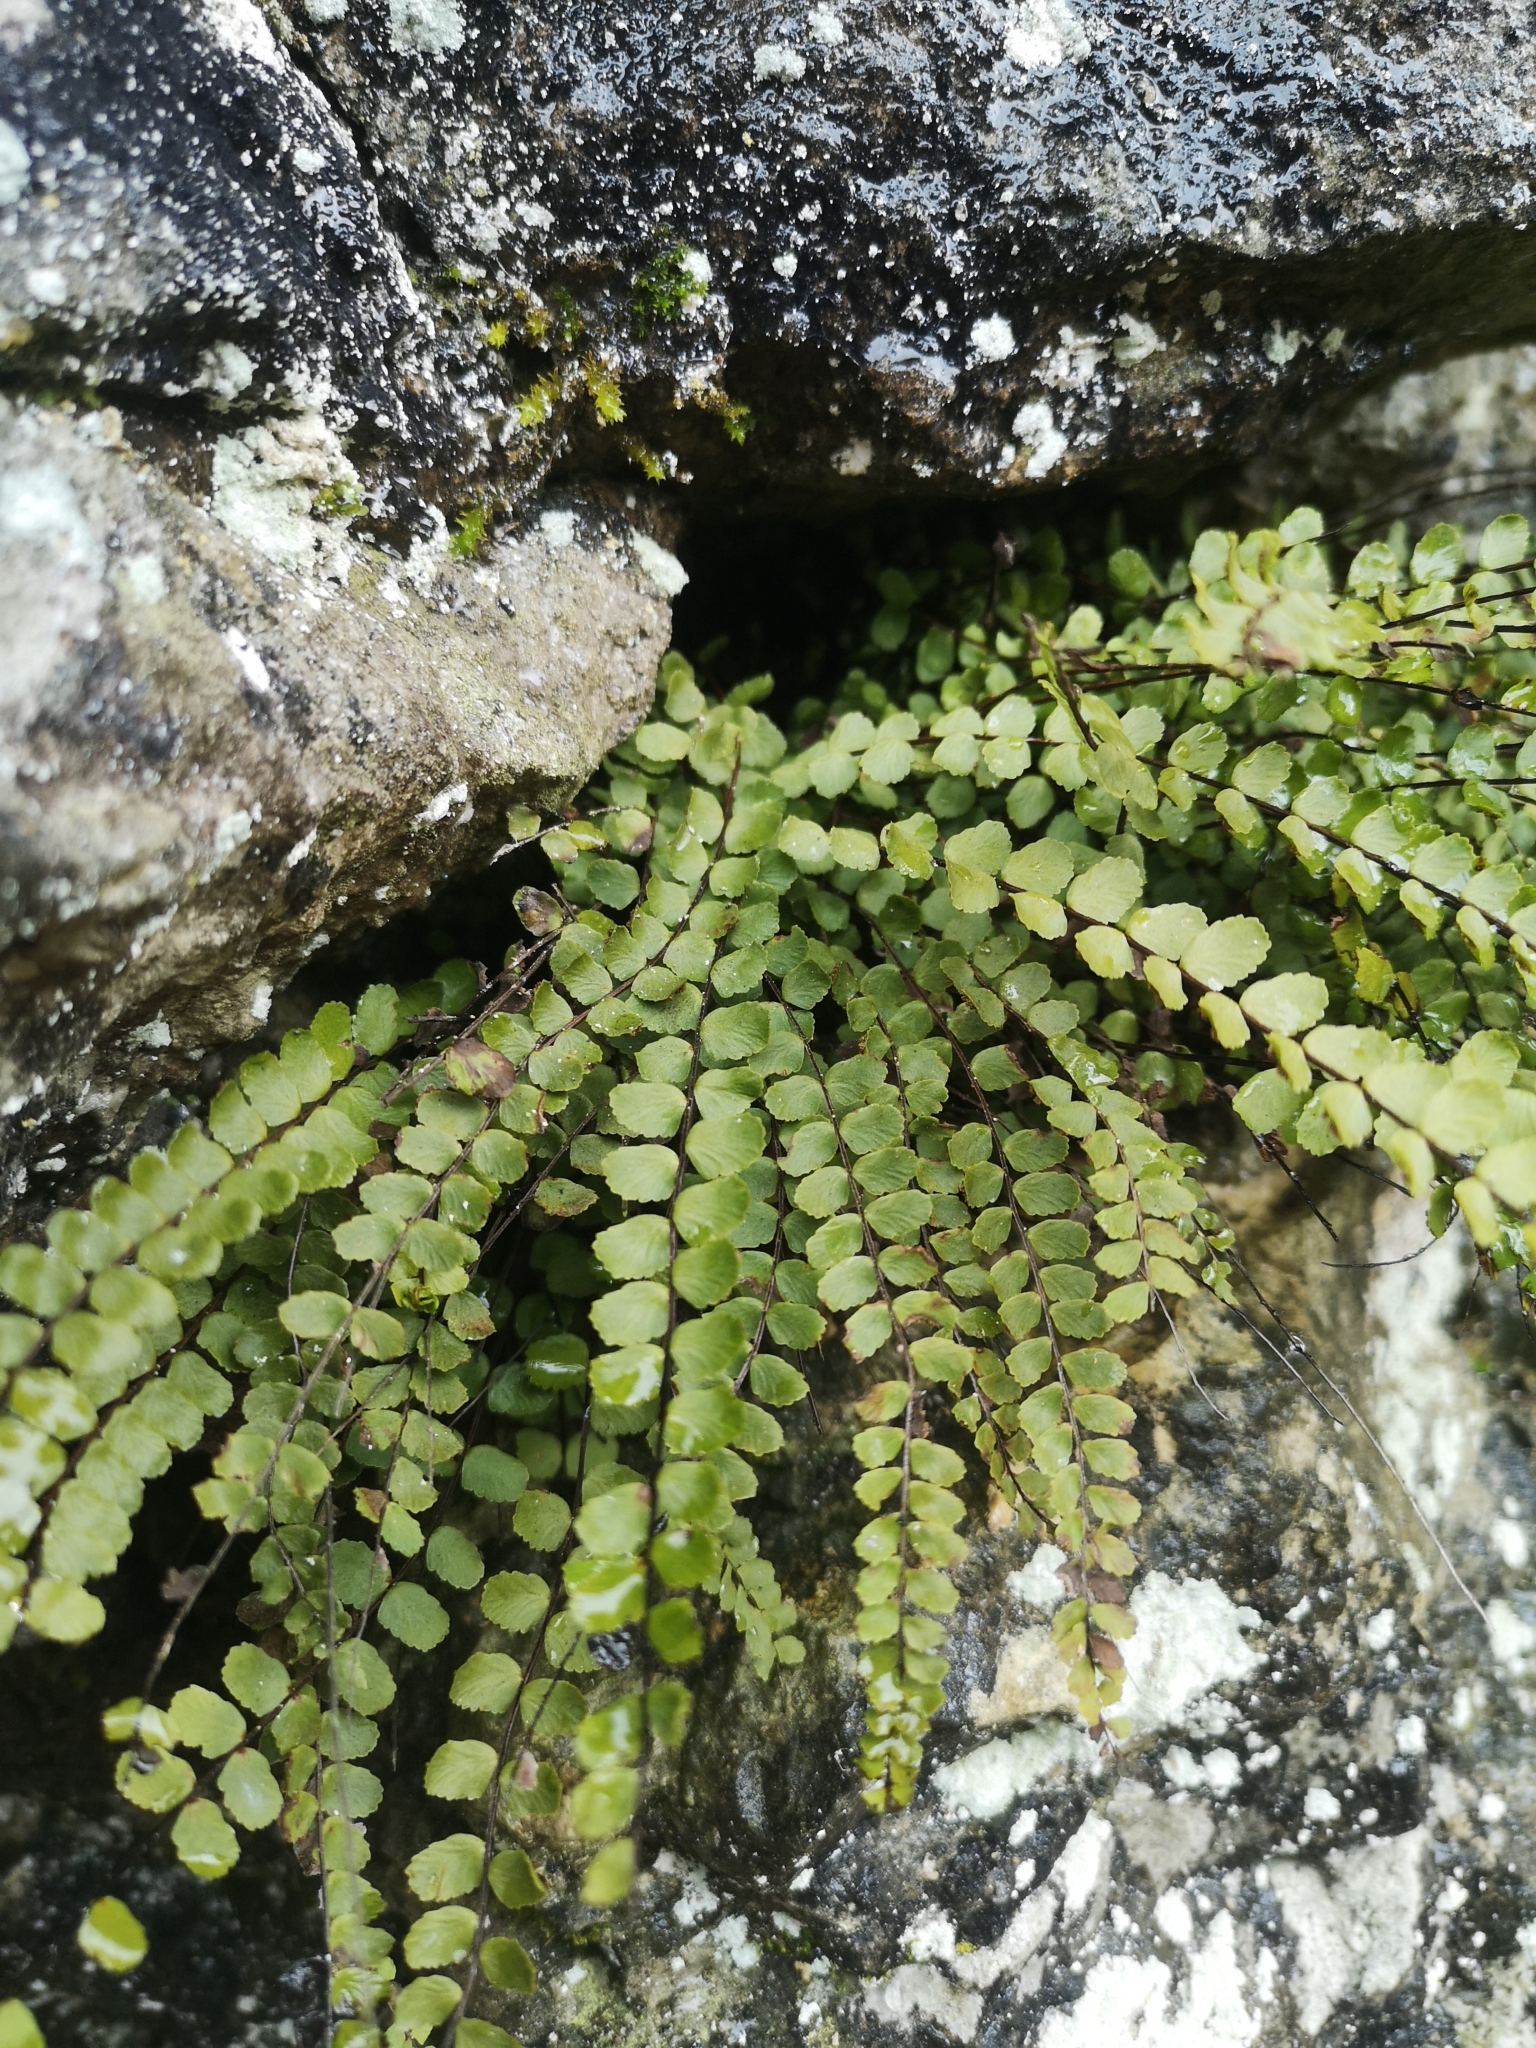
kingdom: Plantae
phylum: Tracheophyta
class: Polypodiopsida
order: Polypodiales
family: Aspleniaceae
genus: Asplenium
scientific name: Asplenium trichomanes
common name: Maidenhair spleenwort
